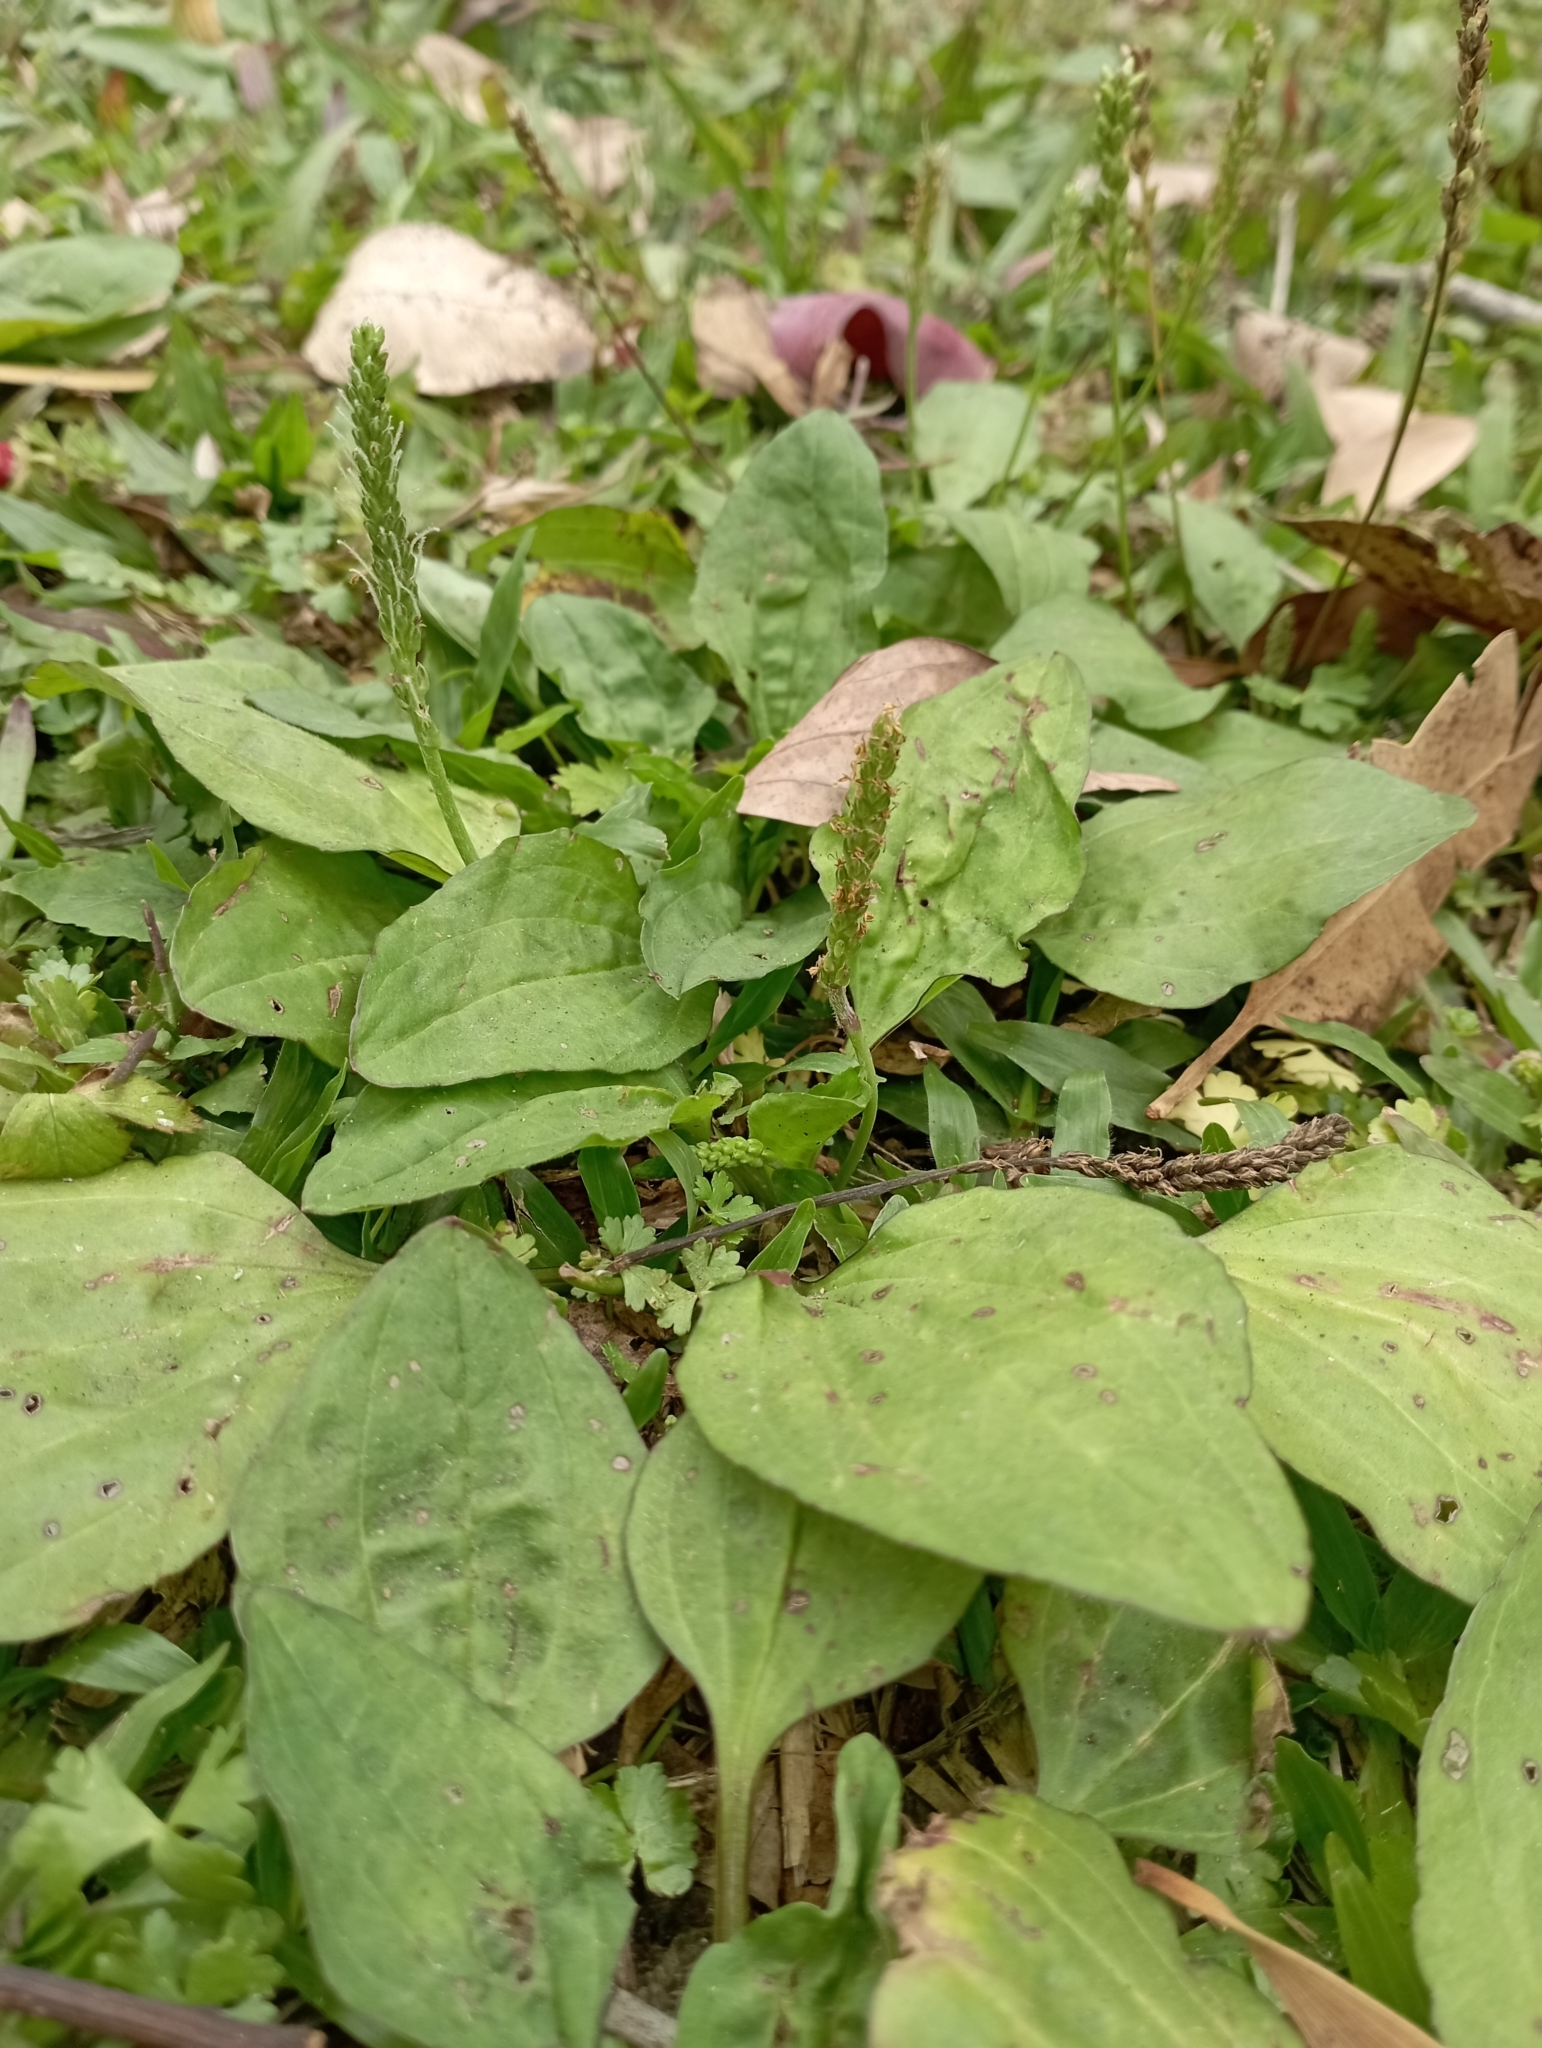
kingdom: Plantae
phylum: Tracheophyta
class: Magnoliopsida
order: Lamiales
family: Plantaginaceae
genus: Plantago
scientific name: Plantago asiatica
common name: Psyllium
